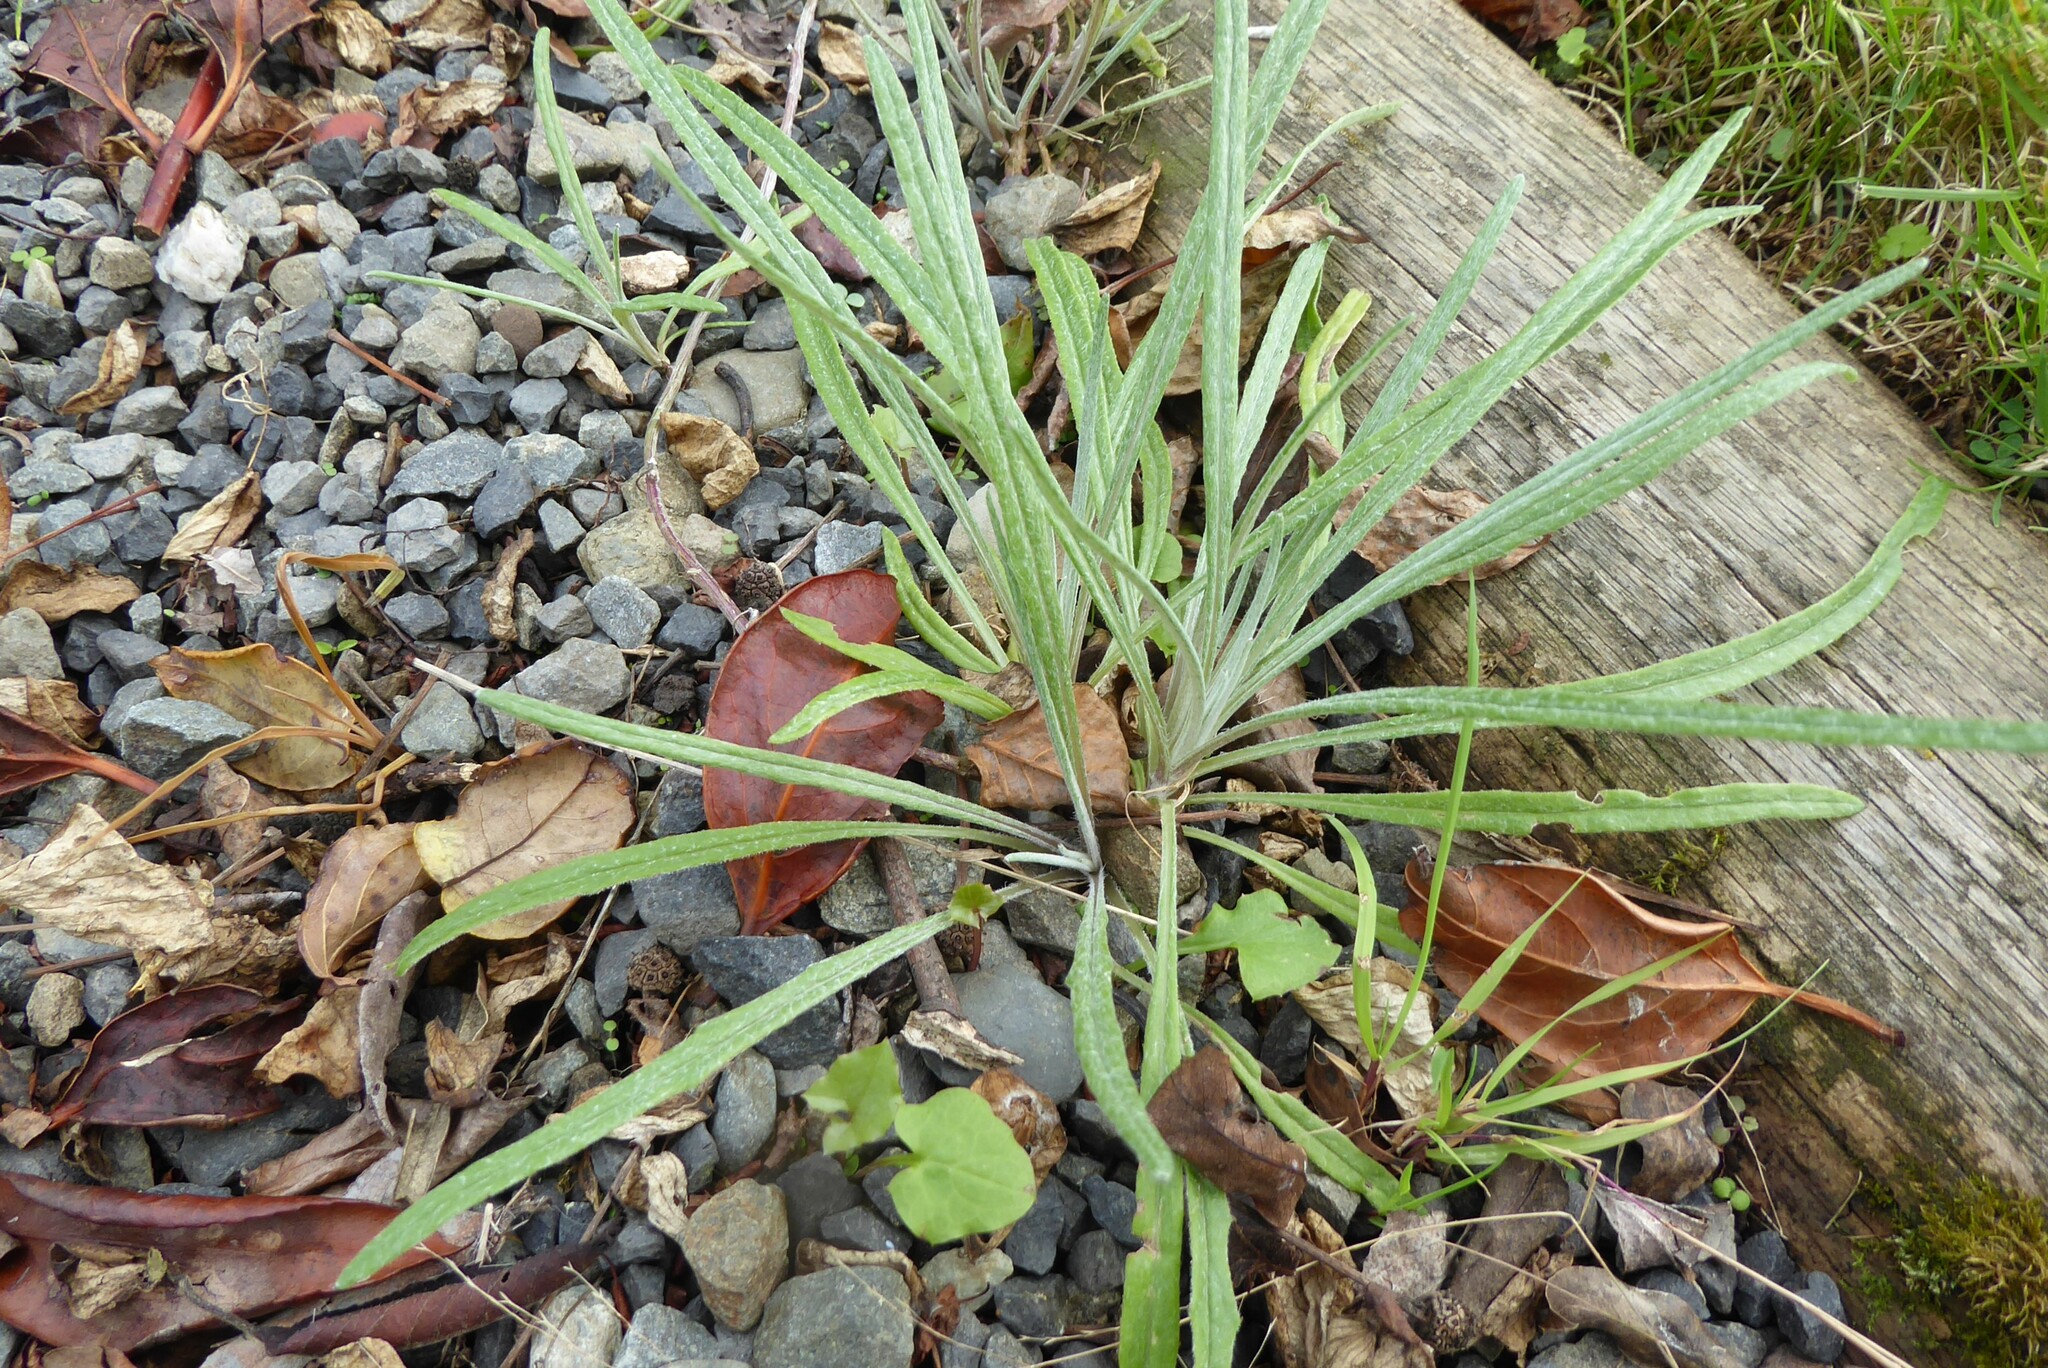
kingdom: Plantae
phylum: Tracheophyta
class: Magnoliopsida
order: Asterales
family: Asteraceae
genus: Senecio
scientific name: Senecio quadridentatus
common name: Cotton fireweed
